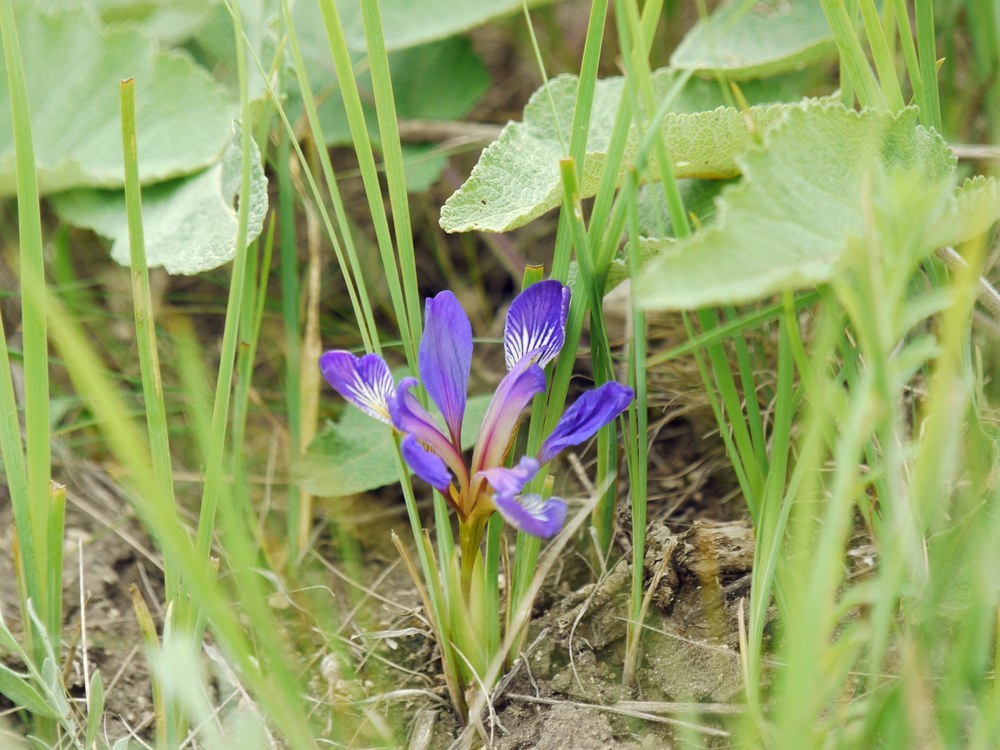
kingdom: Plantae
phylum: Tracheophyta
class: Liliopsida
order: Asparagales
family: Iridaceae
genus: Iris
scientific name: Iris pontica
